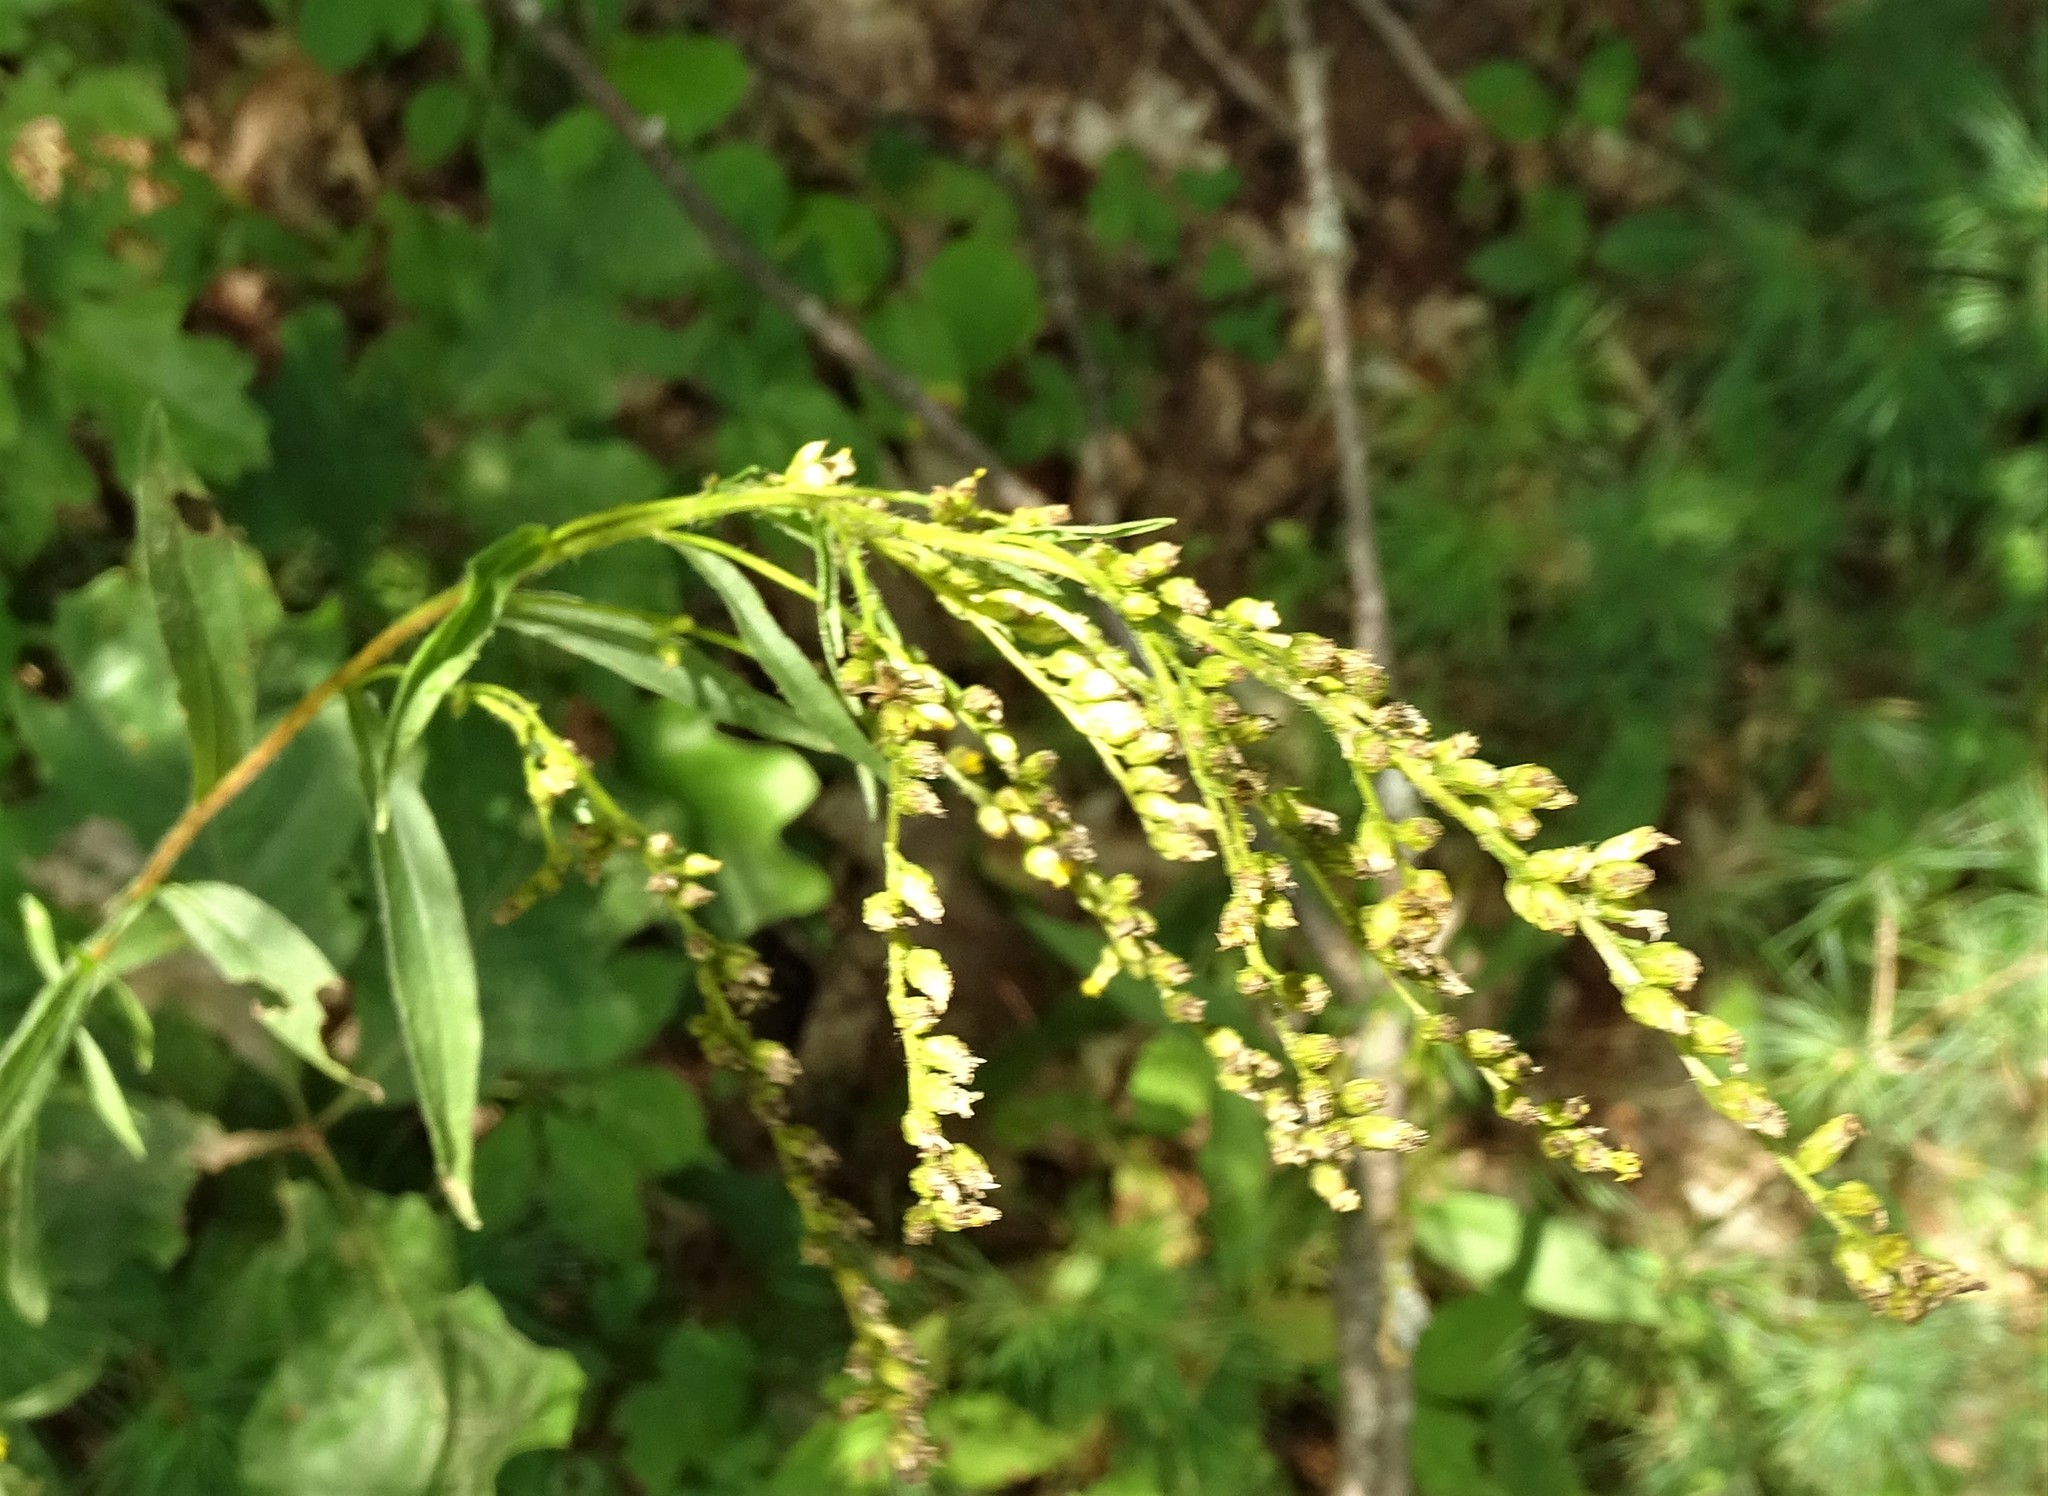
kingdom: Plantae
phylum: Tracheophyta
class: Magnoliopsida
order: Asterales
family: Asteraceae
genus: Solidago
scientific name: Solidago juncea
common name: Early goldenrod
